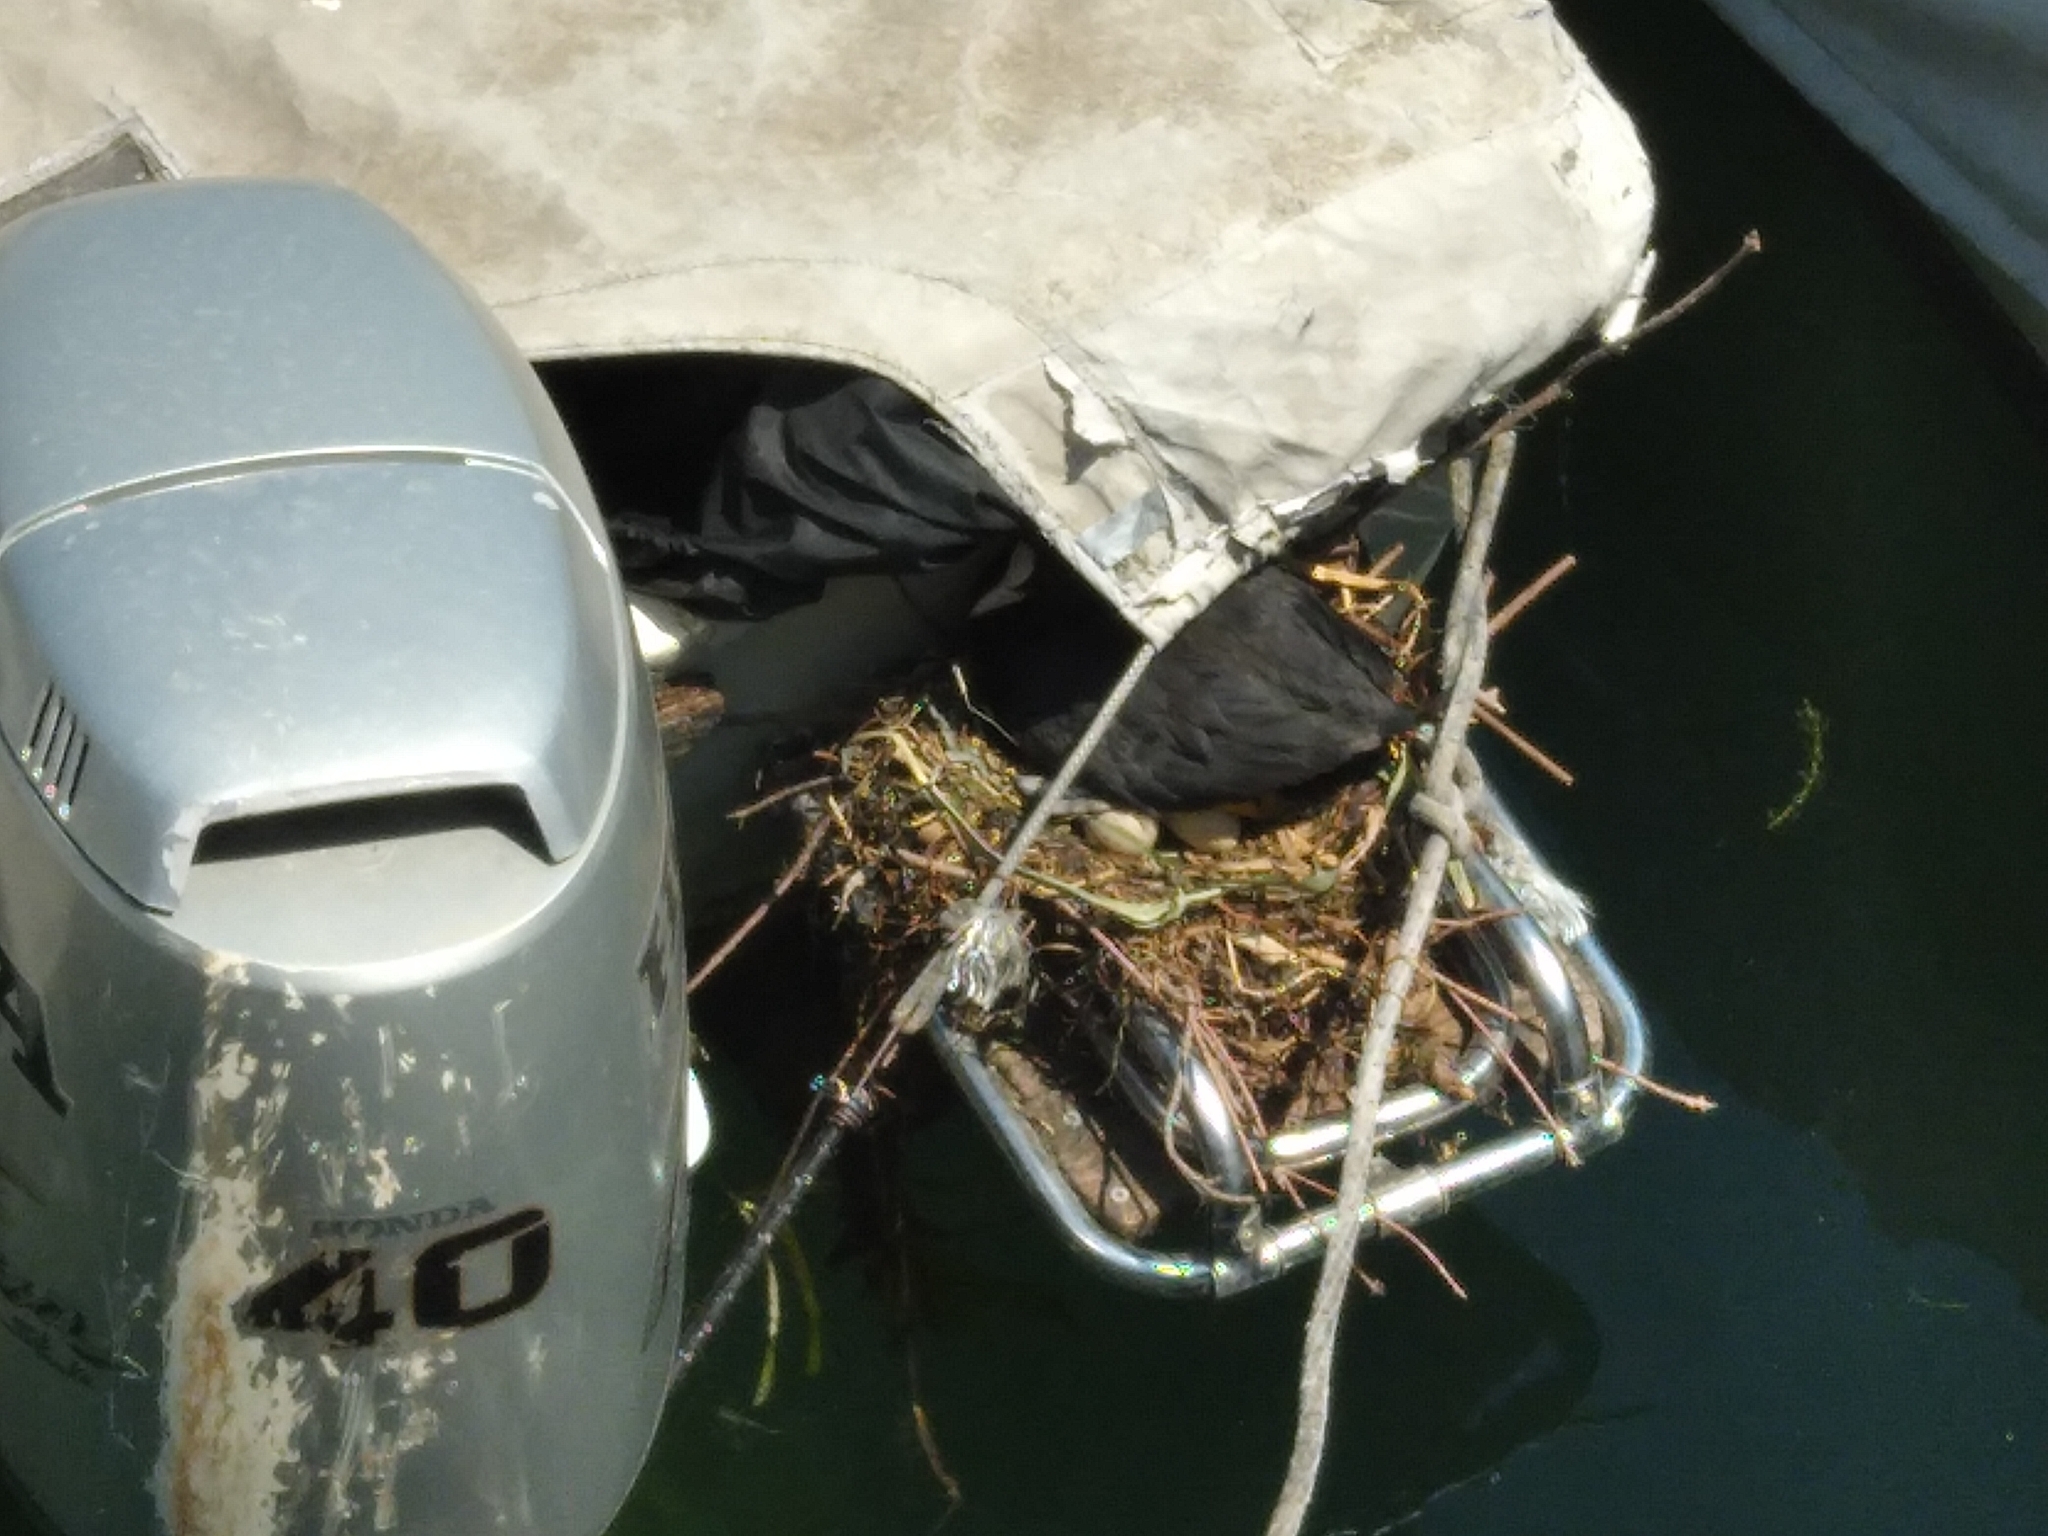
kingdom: Animalia
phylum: Chordata
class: Aves
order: Gruiformes
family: Rallidae
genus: Fulica
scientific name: Fulica atra
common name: Eurasian coot
